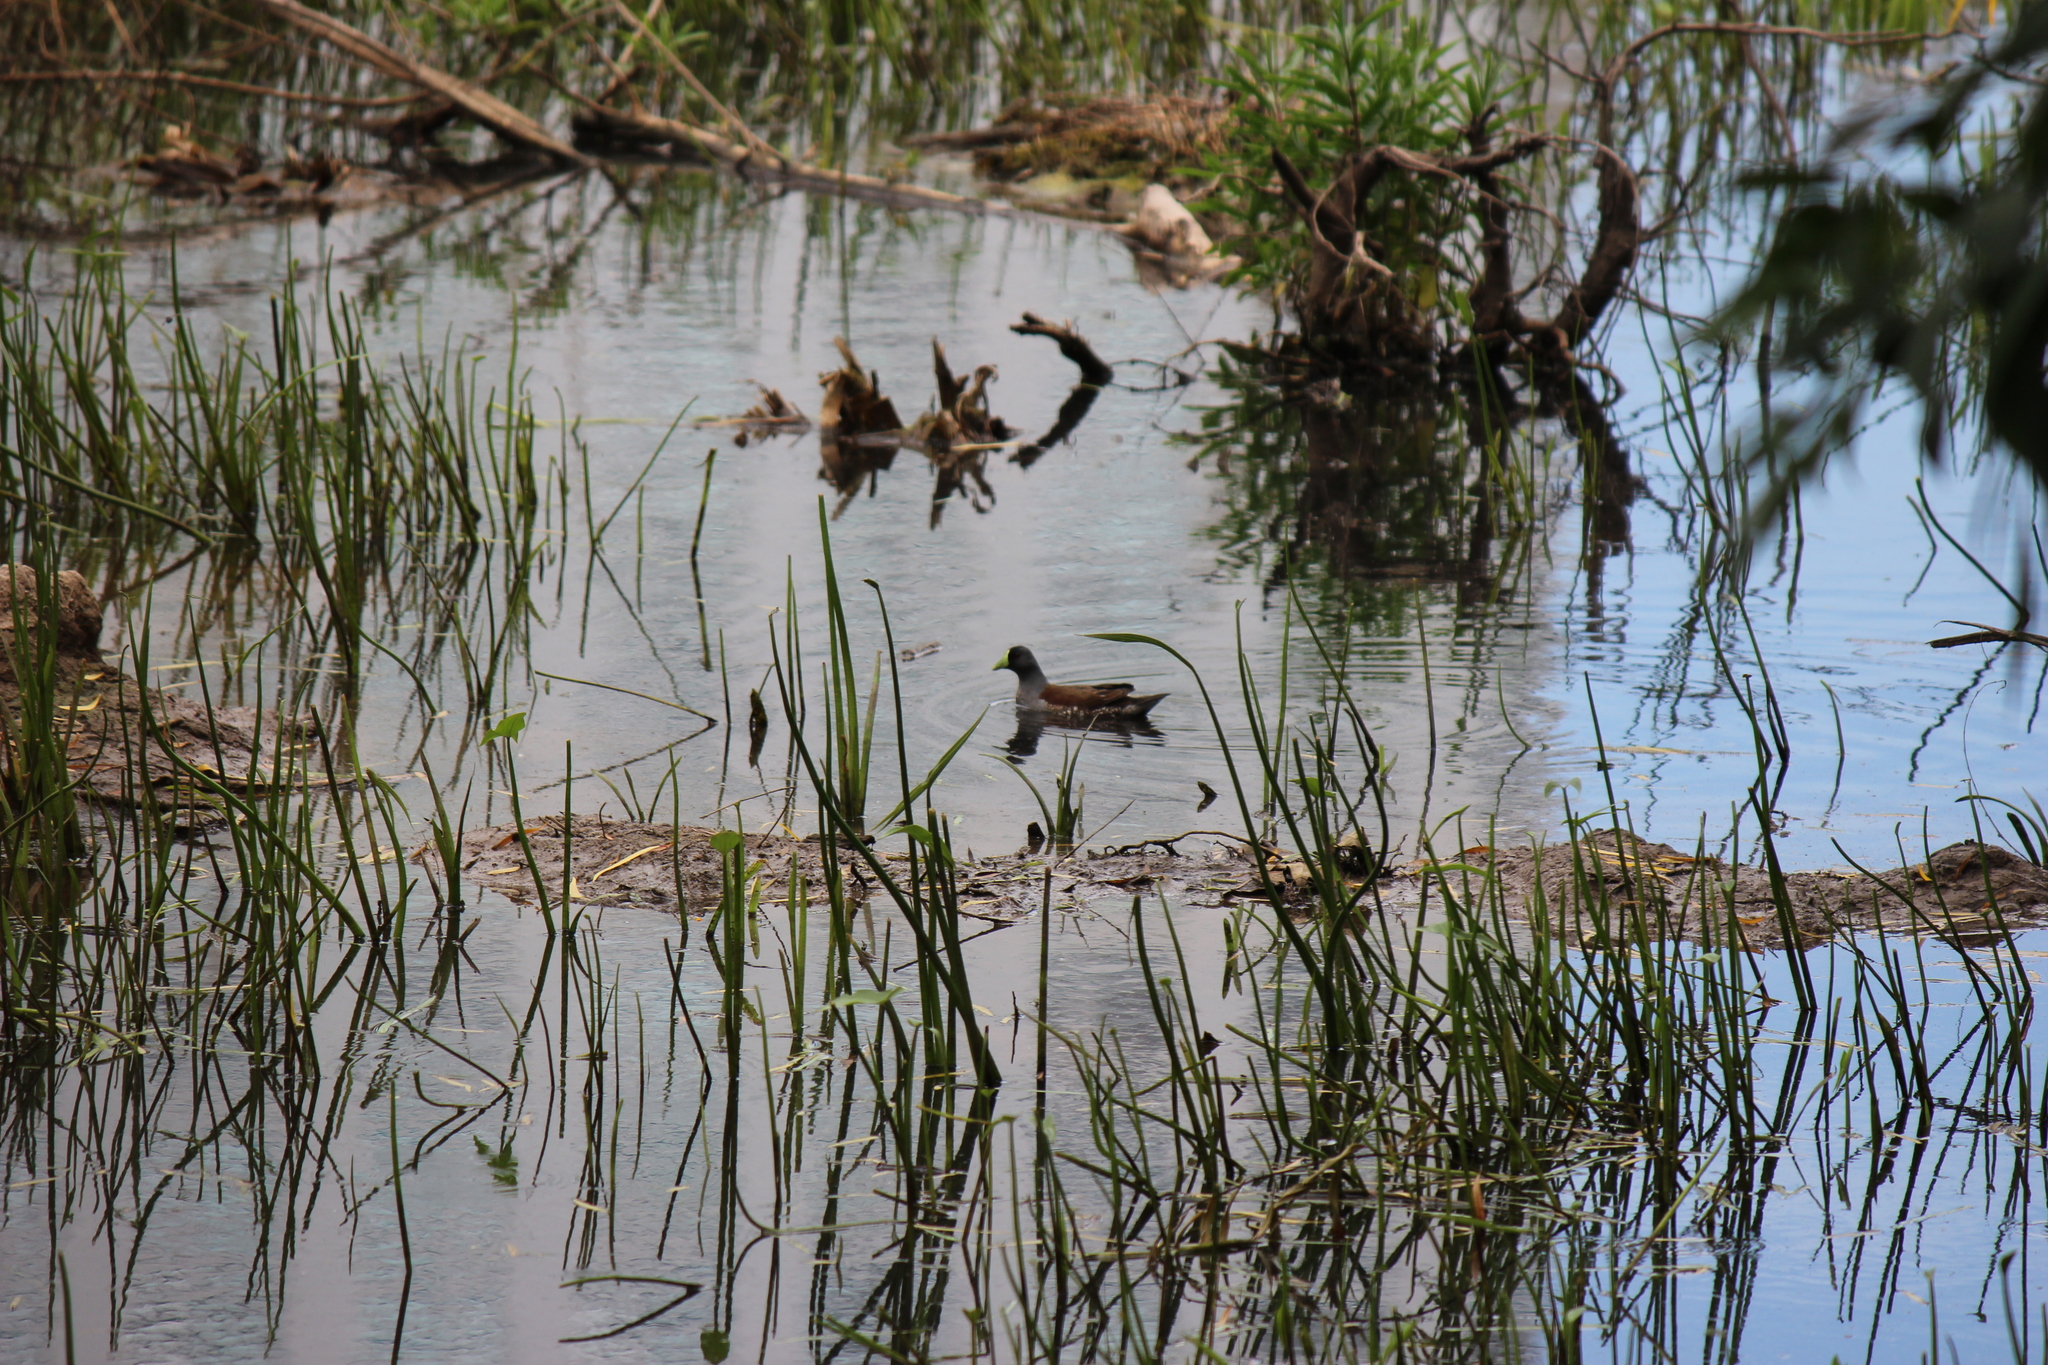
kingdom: Animalia
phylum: Chordata
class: Aves
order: Gruiformes
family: Rallidae
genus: Gallinula
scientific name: Gallinula melanops
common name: Spot-flanked gallinule
